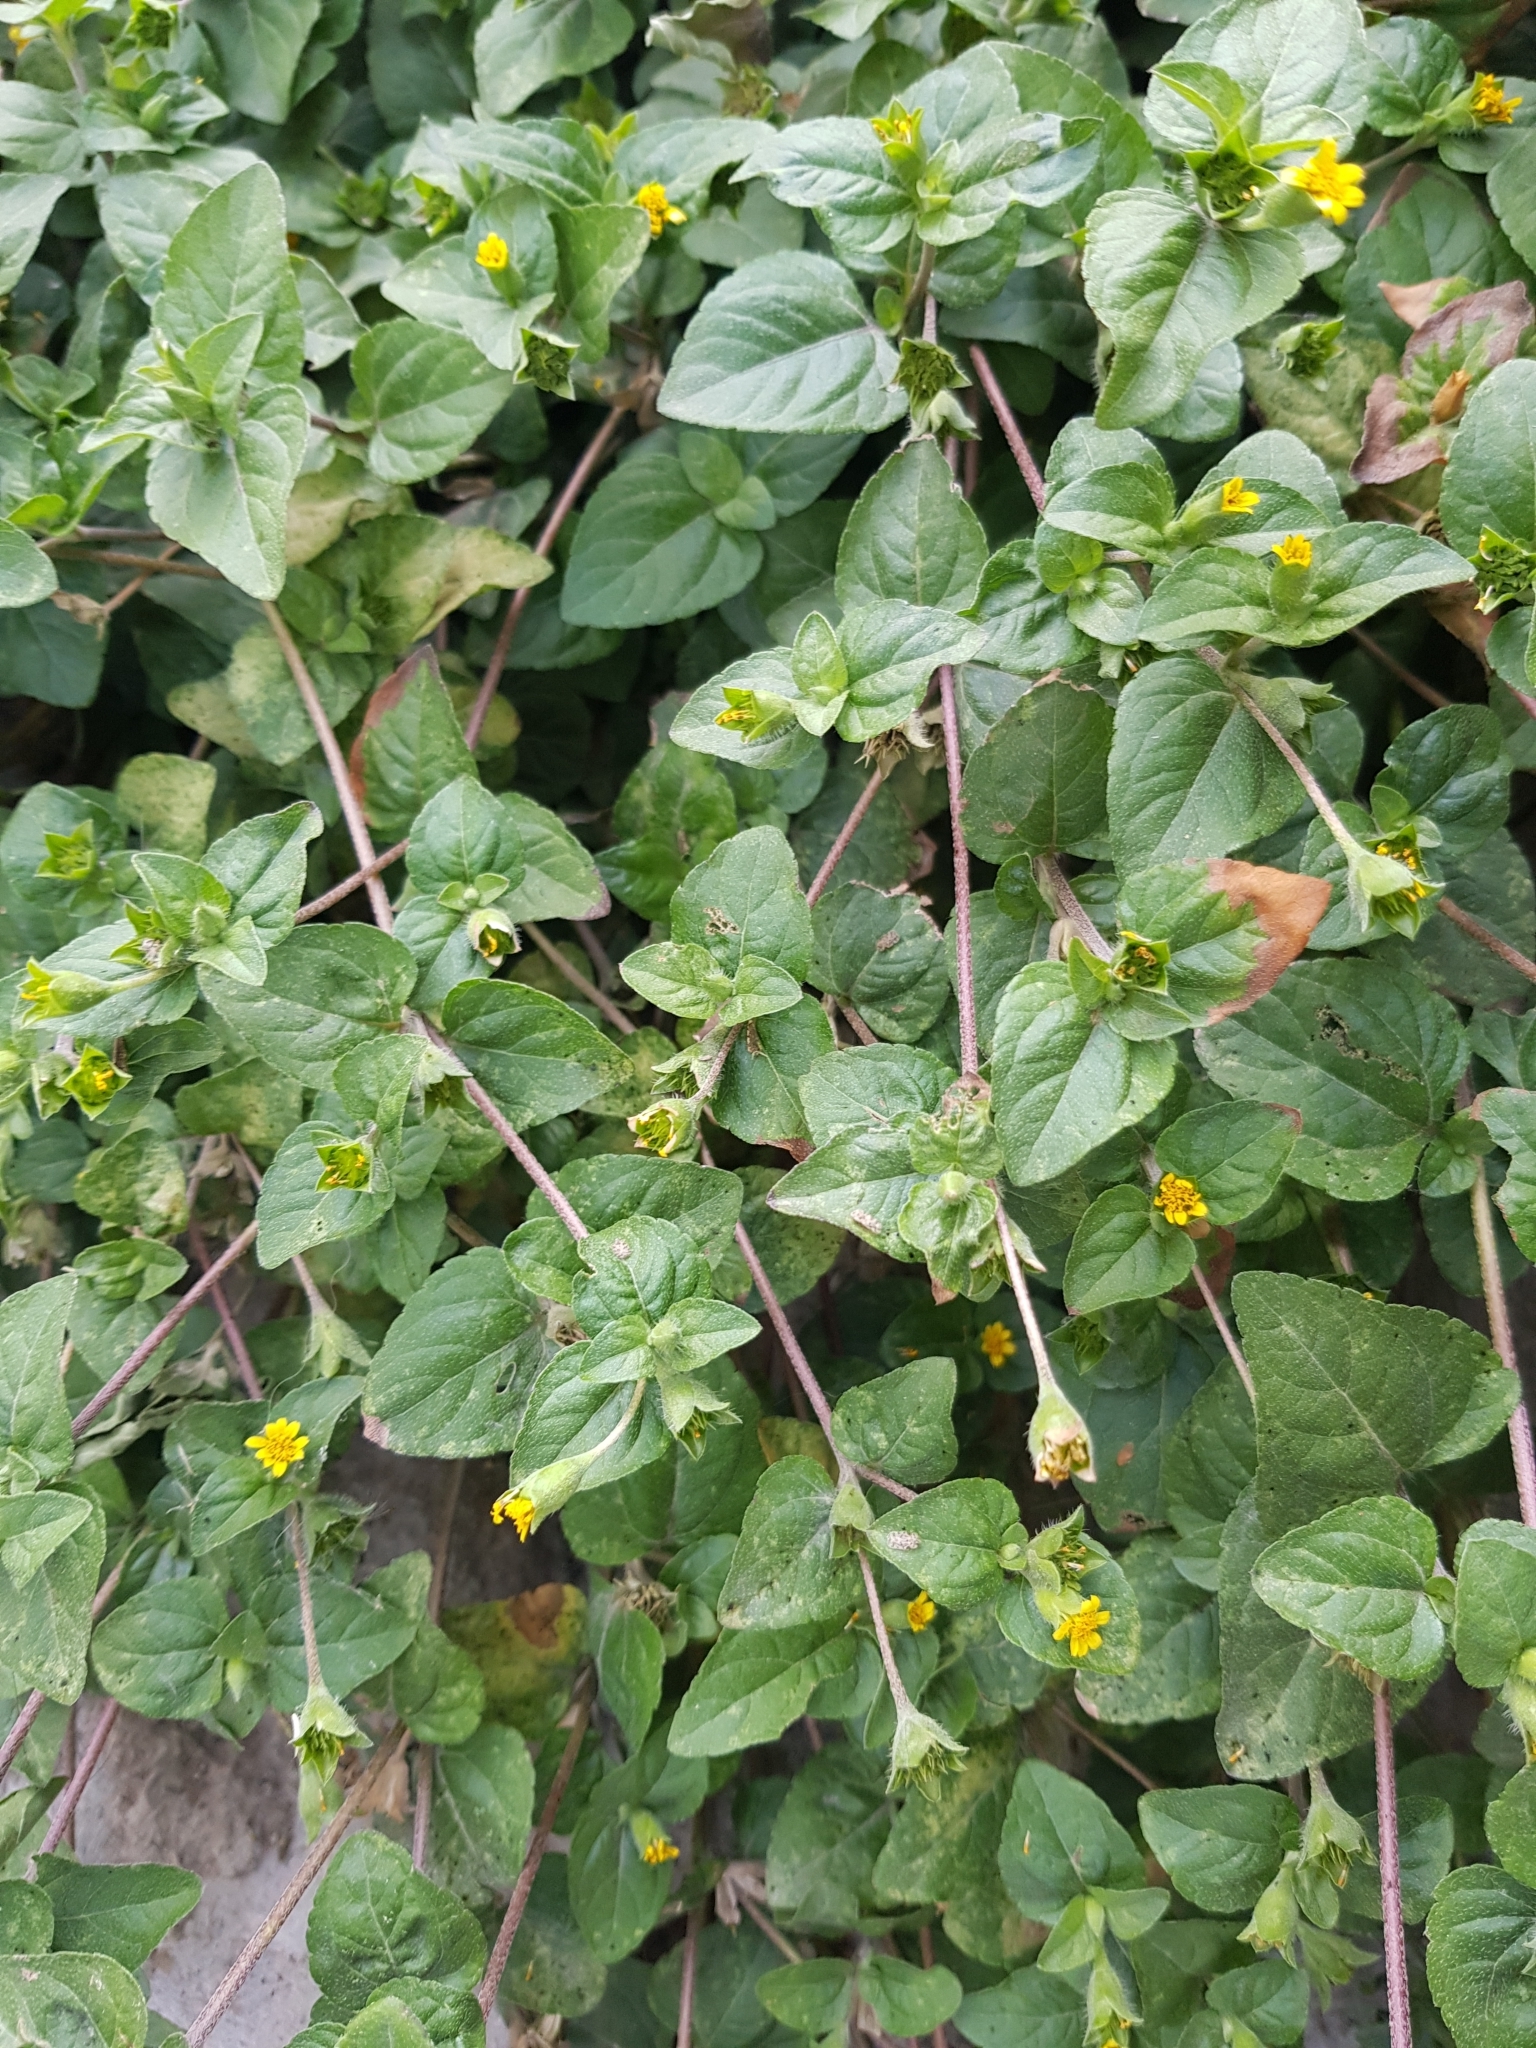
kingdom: Plantae
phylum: Tracheophyta
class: Magnoliopsida
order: Asterales
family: Asteraceae
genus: Calyptocarpus
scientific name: Calyptocarpus vialis
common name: Straggler daisy
